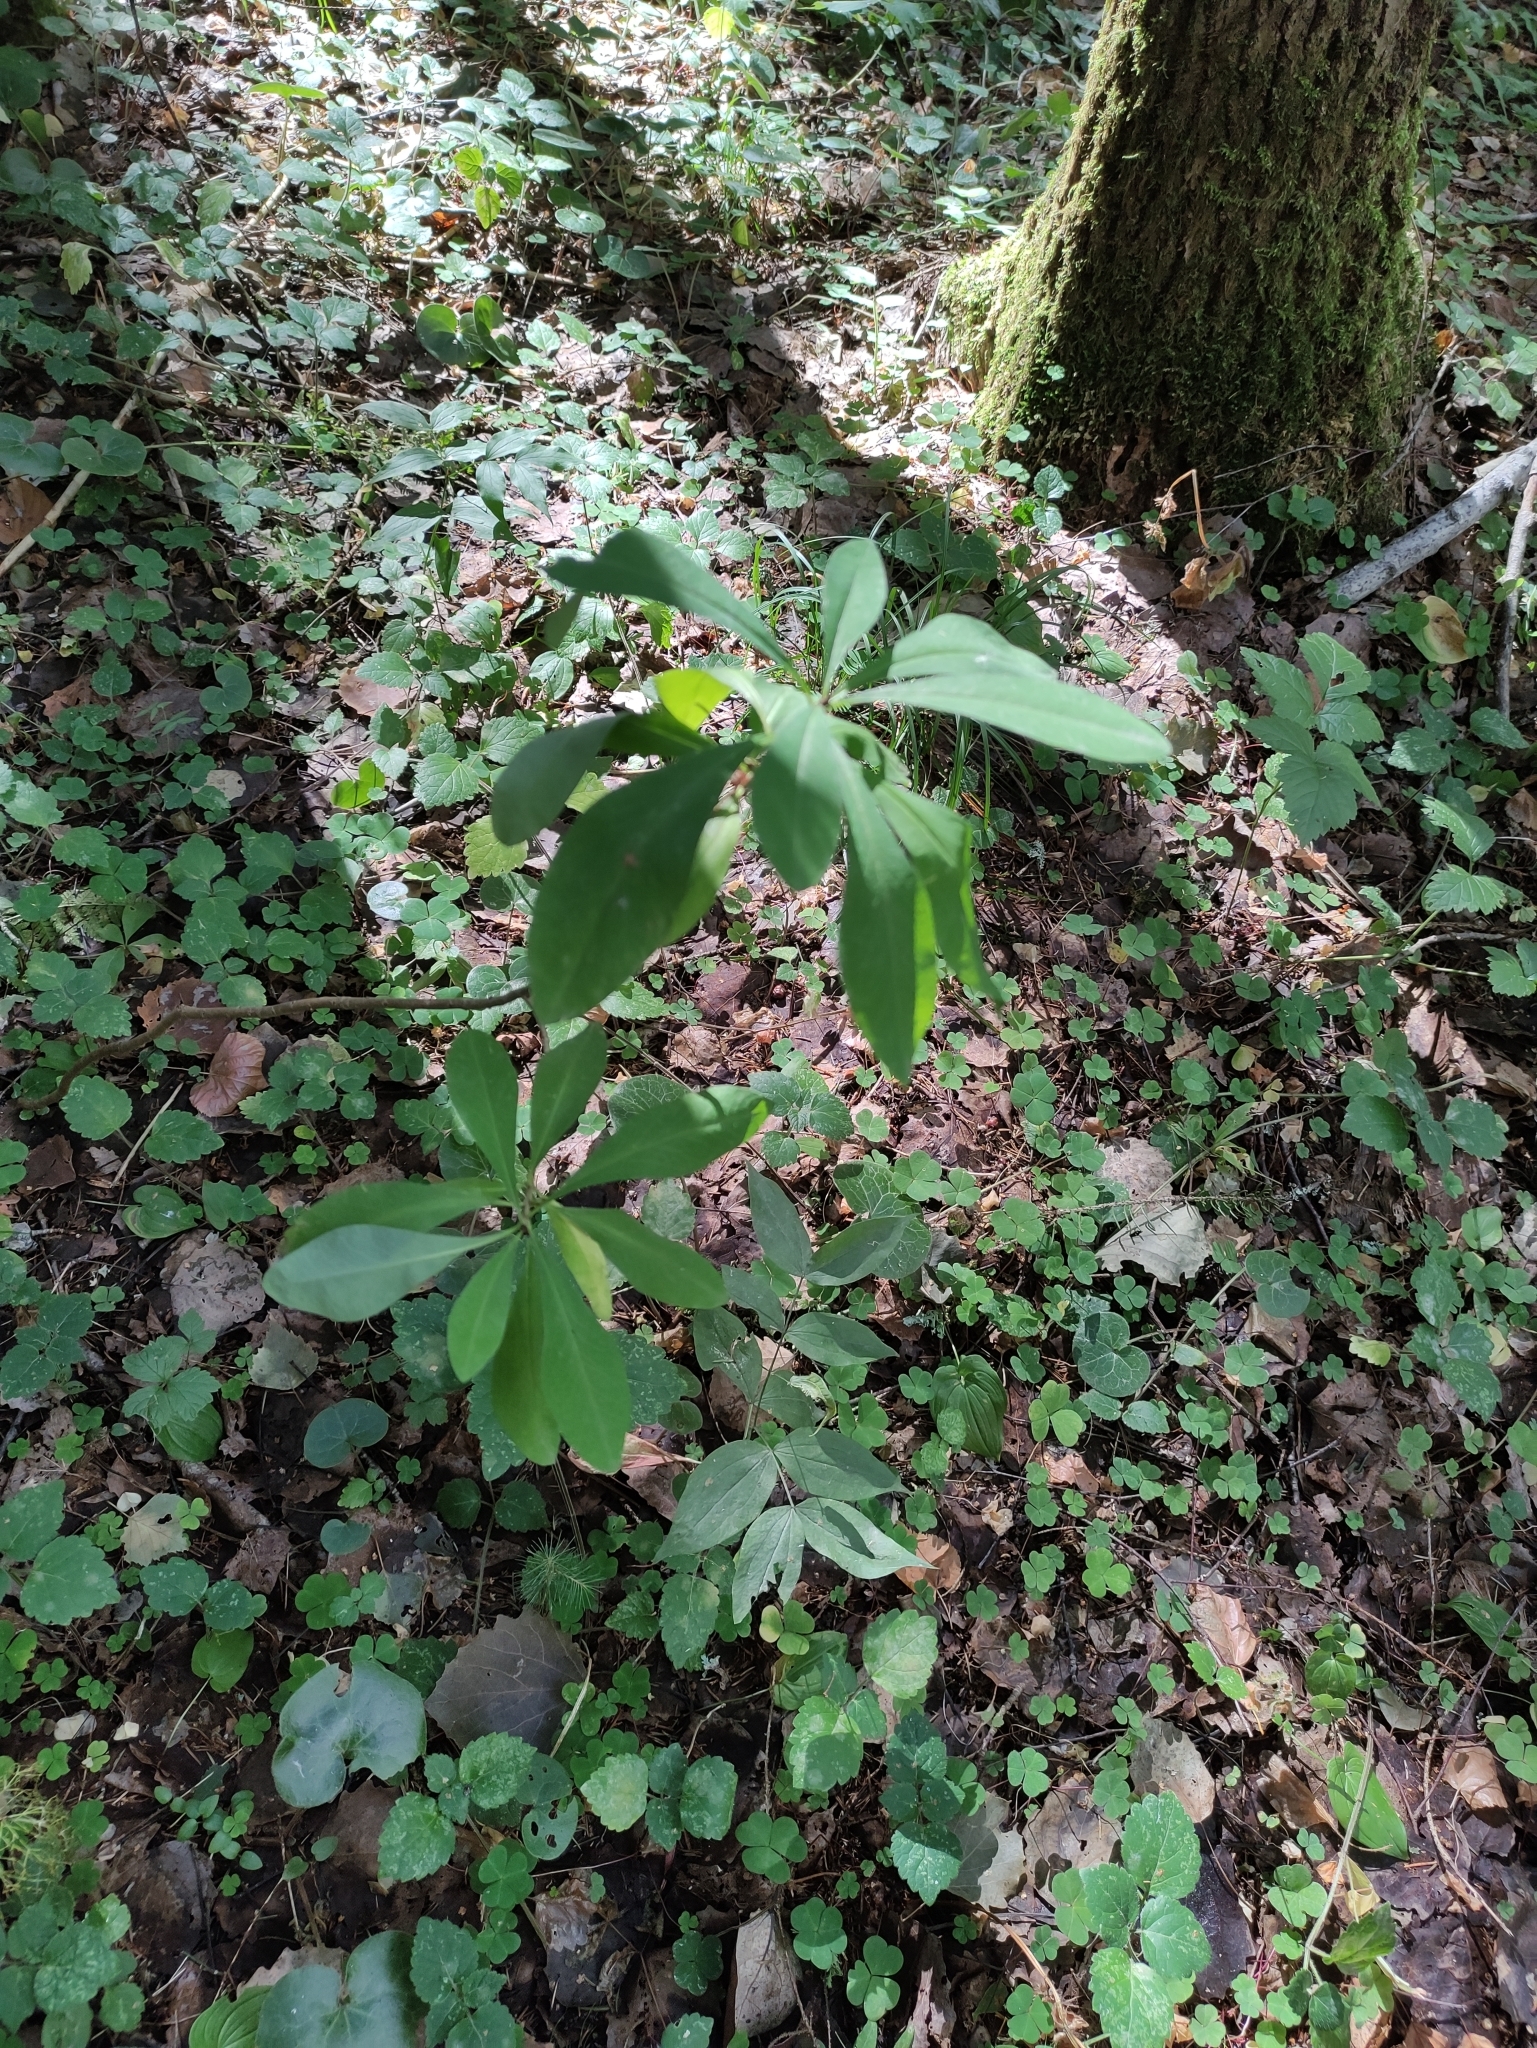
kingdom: Plantae
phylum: Tracheophyta
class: Magnoliopsida
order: Malvales
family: Thymelaeaceae
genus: Daphne
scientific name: Daphne mezereum
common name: Mezereon
